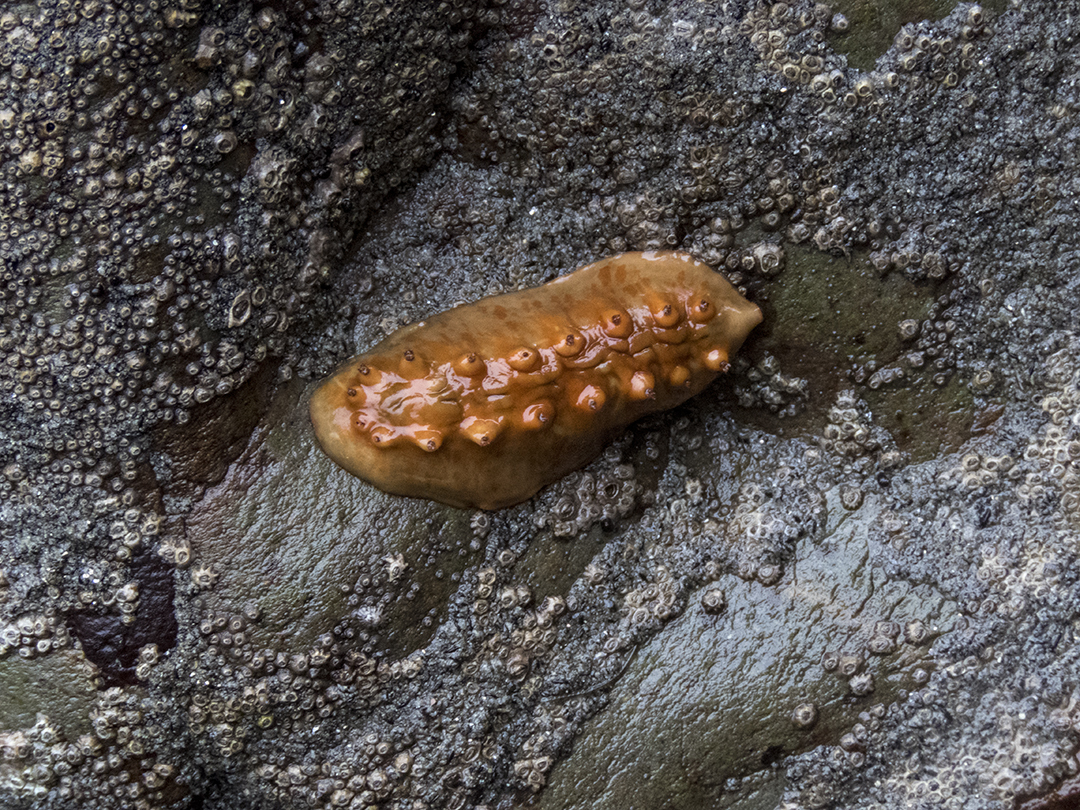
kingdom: Animalia
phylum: Mollusca
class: Polyplacophora
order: Chitonida
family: Acanthochitonidae
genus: Cryptoconchus
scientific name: Cryptoconchus porosus
